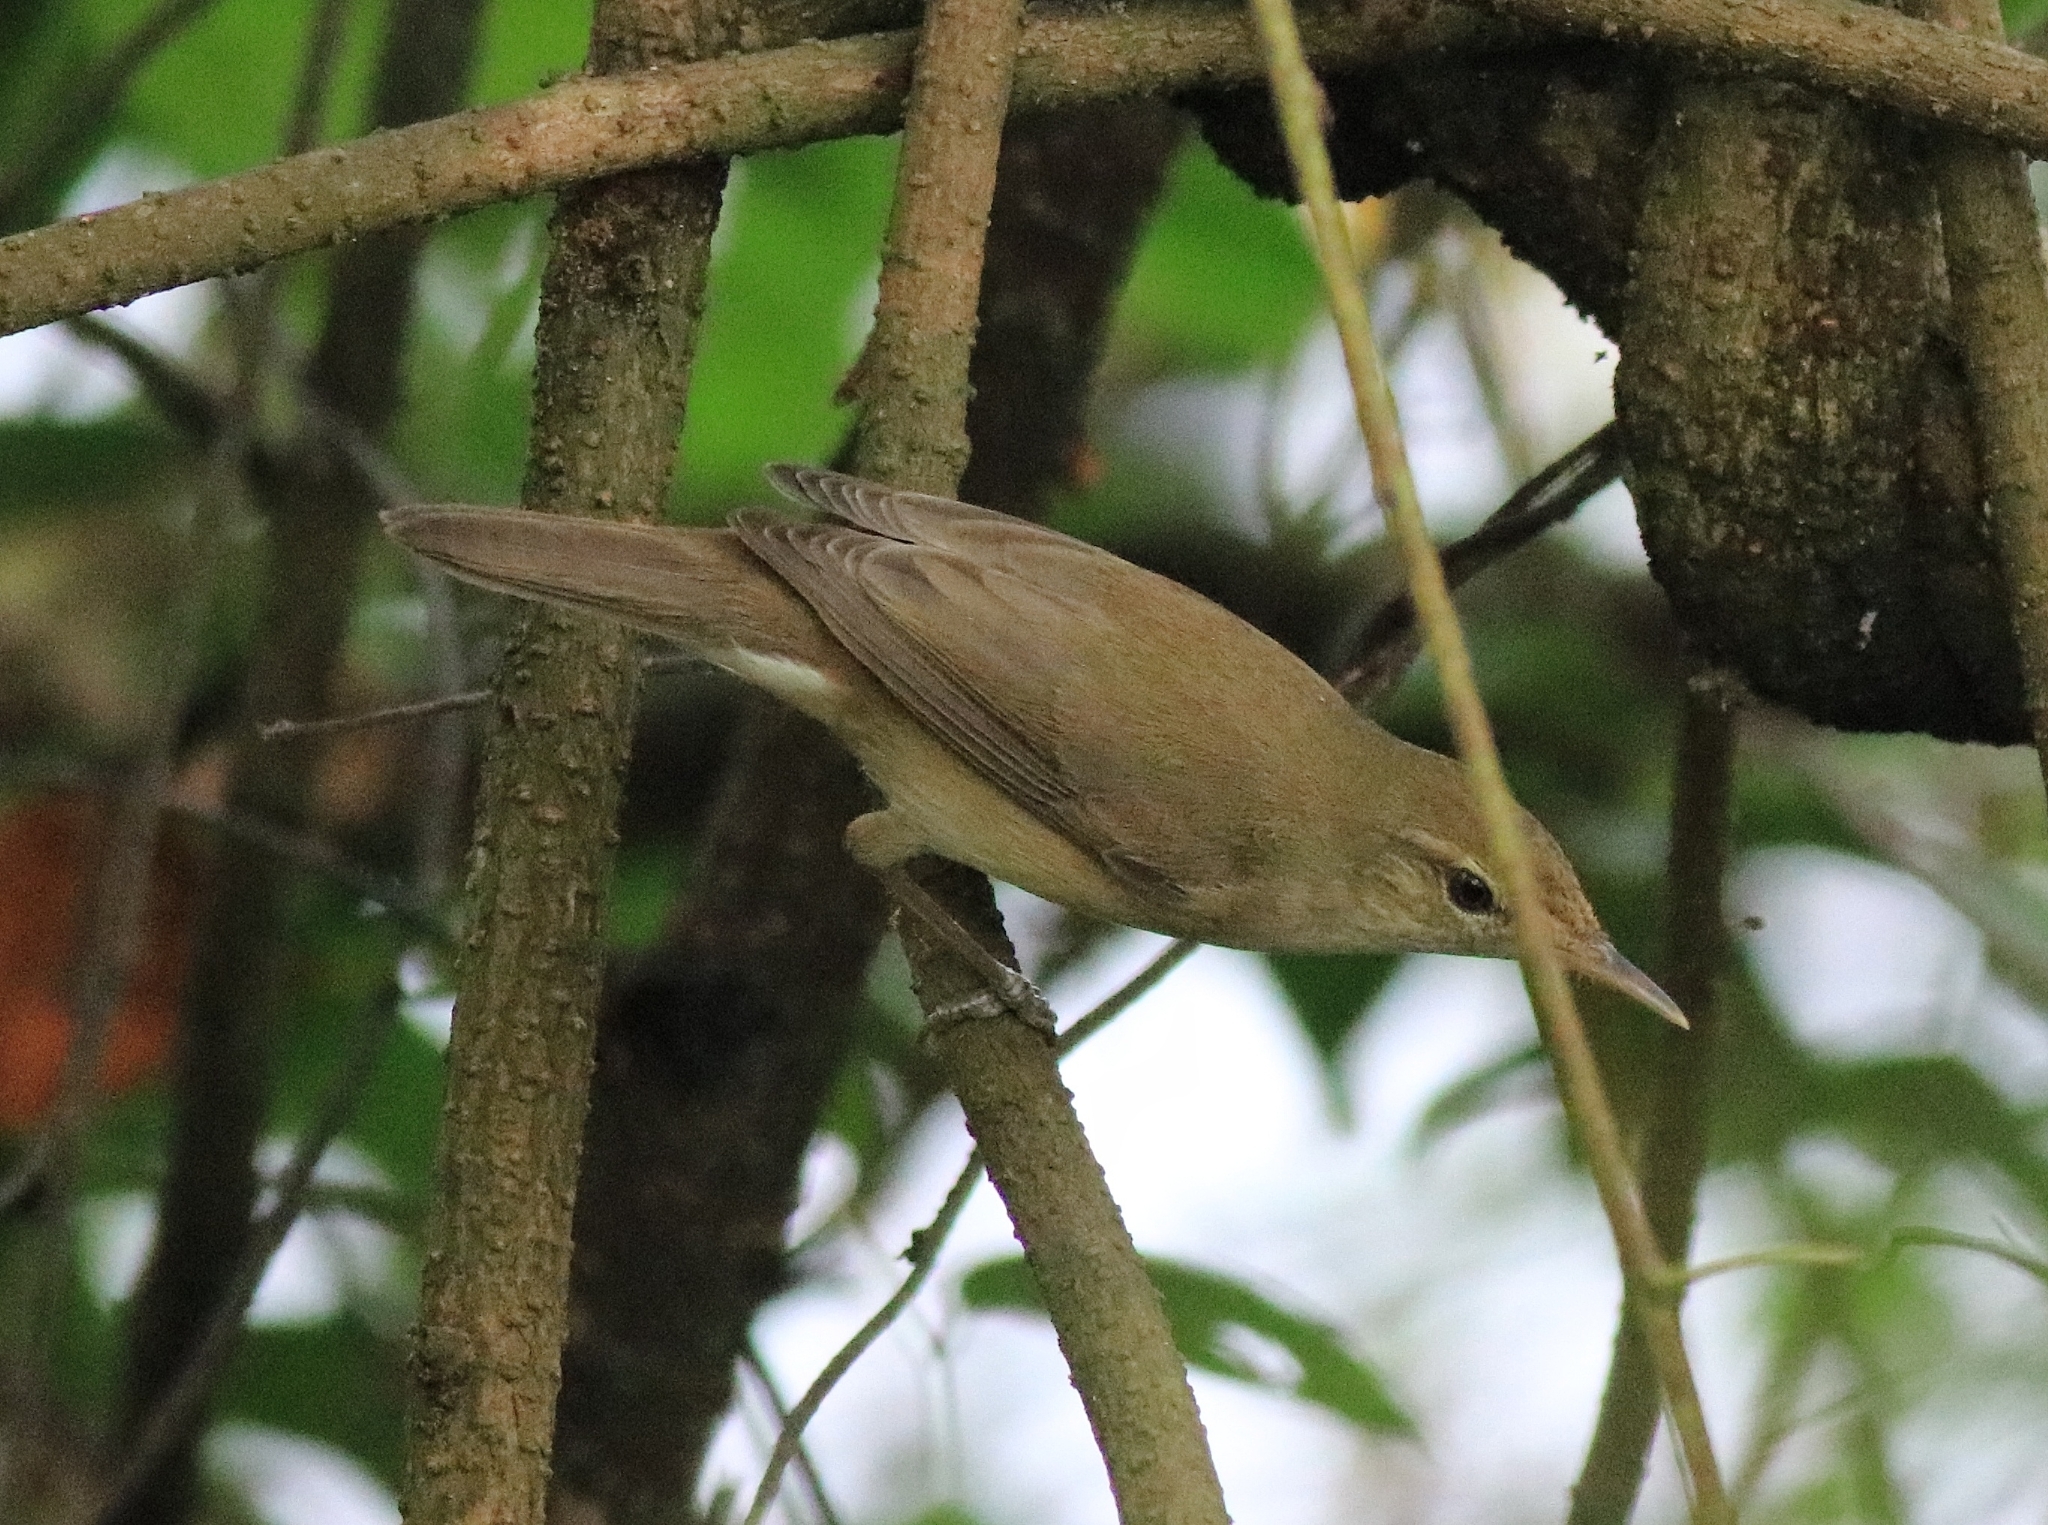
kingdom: Animalia
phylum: Chordata
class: Aves
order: Passeriformes
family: Acrocephalidae
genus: Acrocephalus
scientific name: Acrocephalus dumetorum
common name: Blyth's reed warbler
